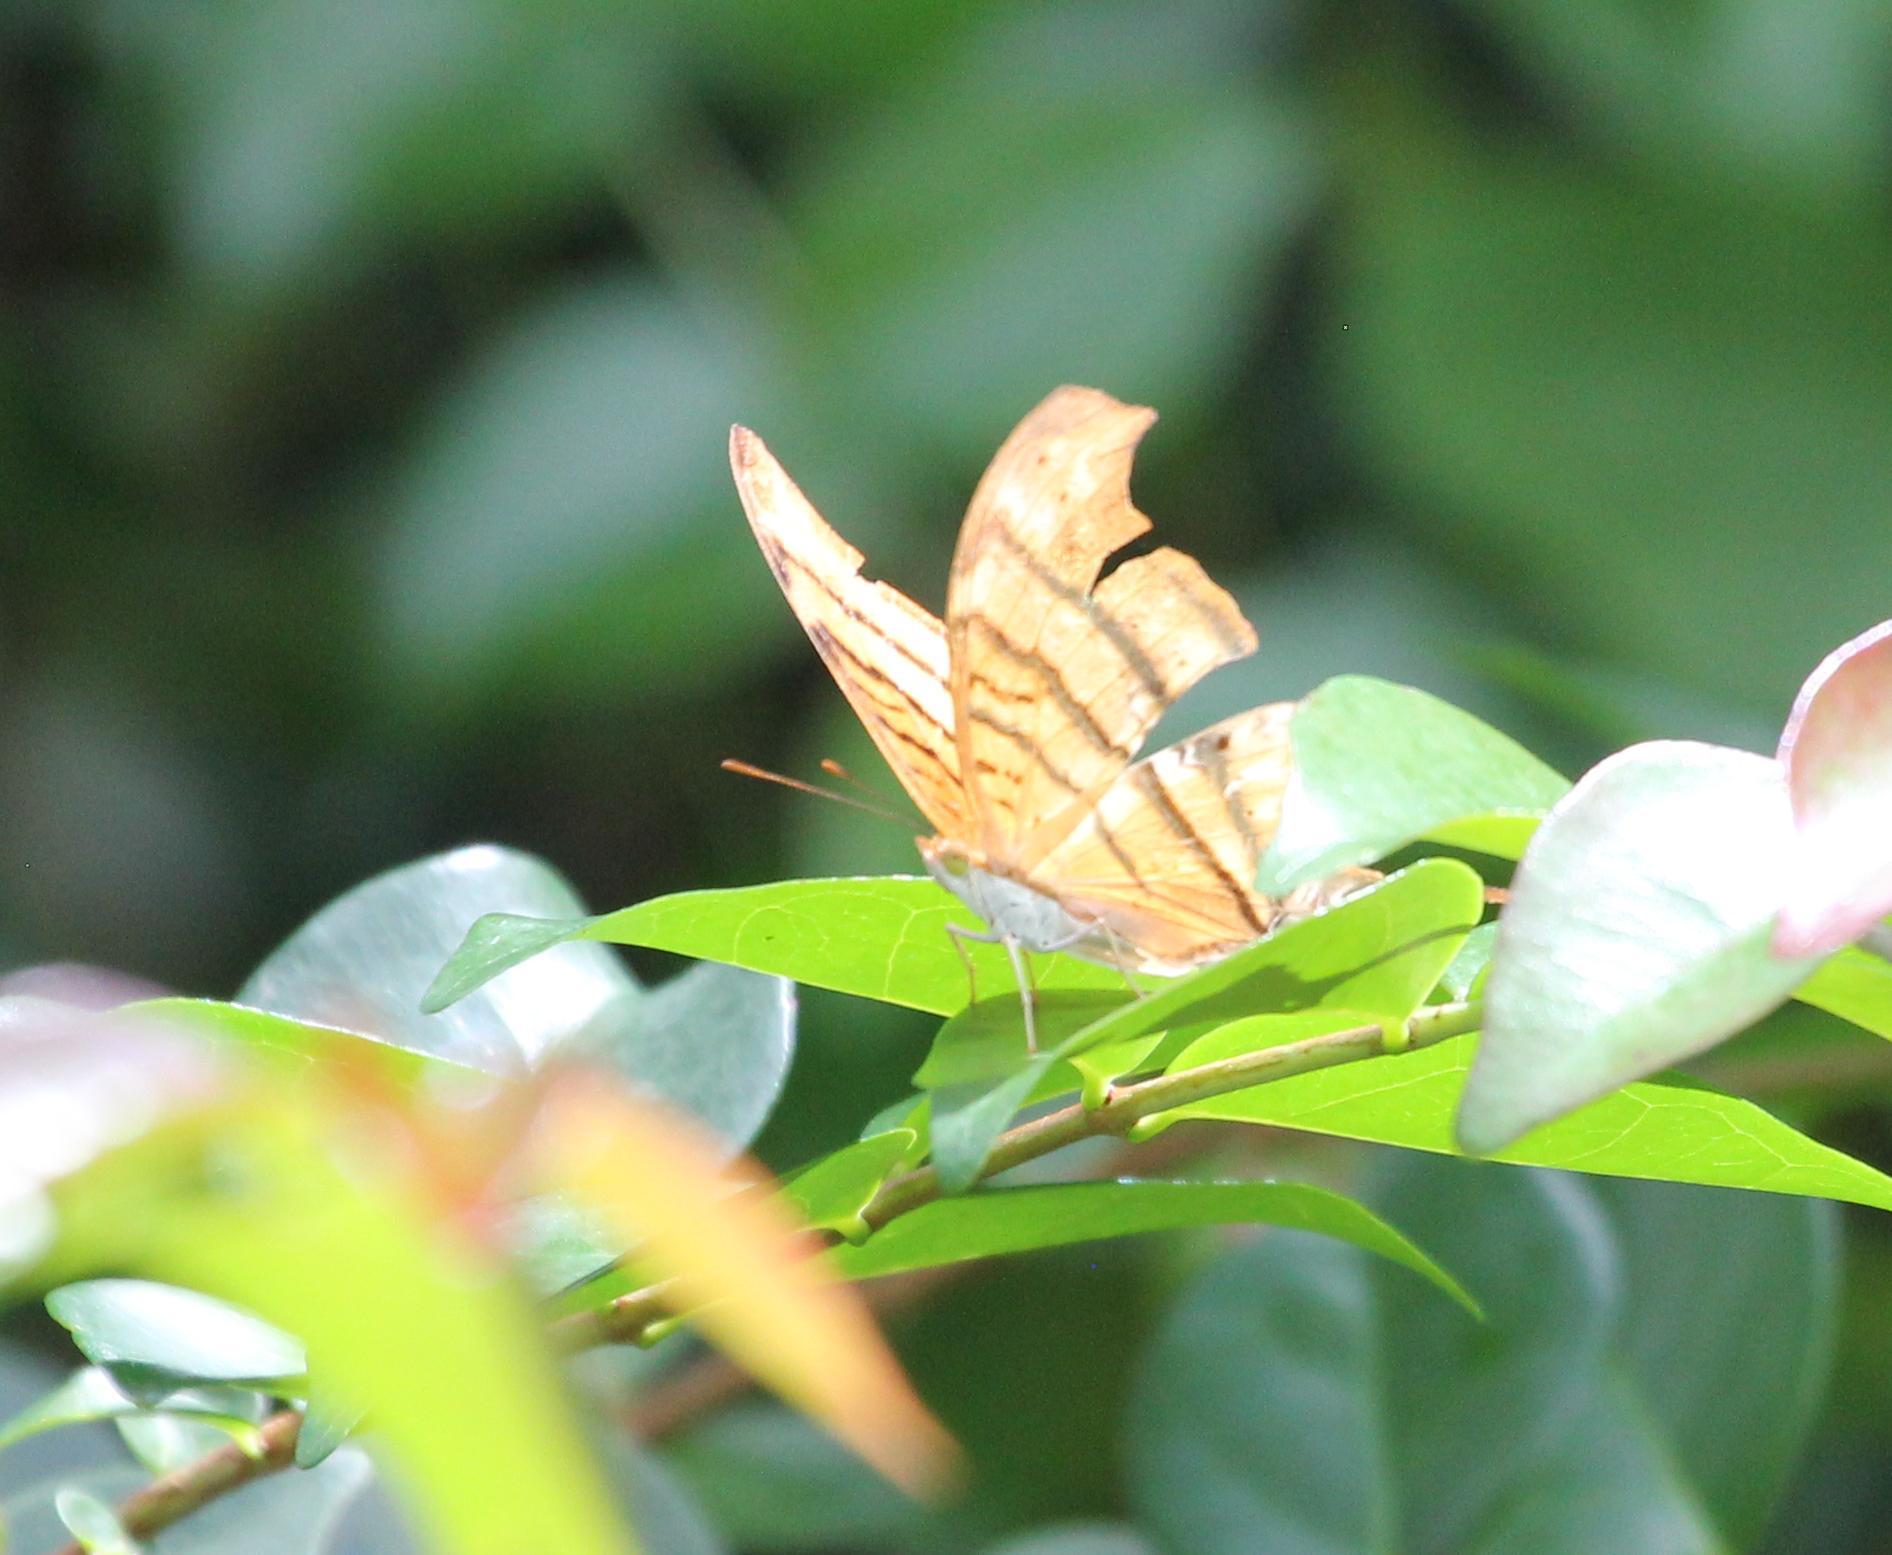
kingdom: Animalia
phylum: Arthropoda
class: Insecta
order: Lepidoptera
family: Nymphalidae
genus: Marpesia
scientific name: Marpesia petreus
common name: Red dagger wing
